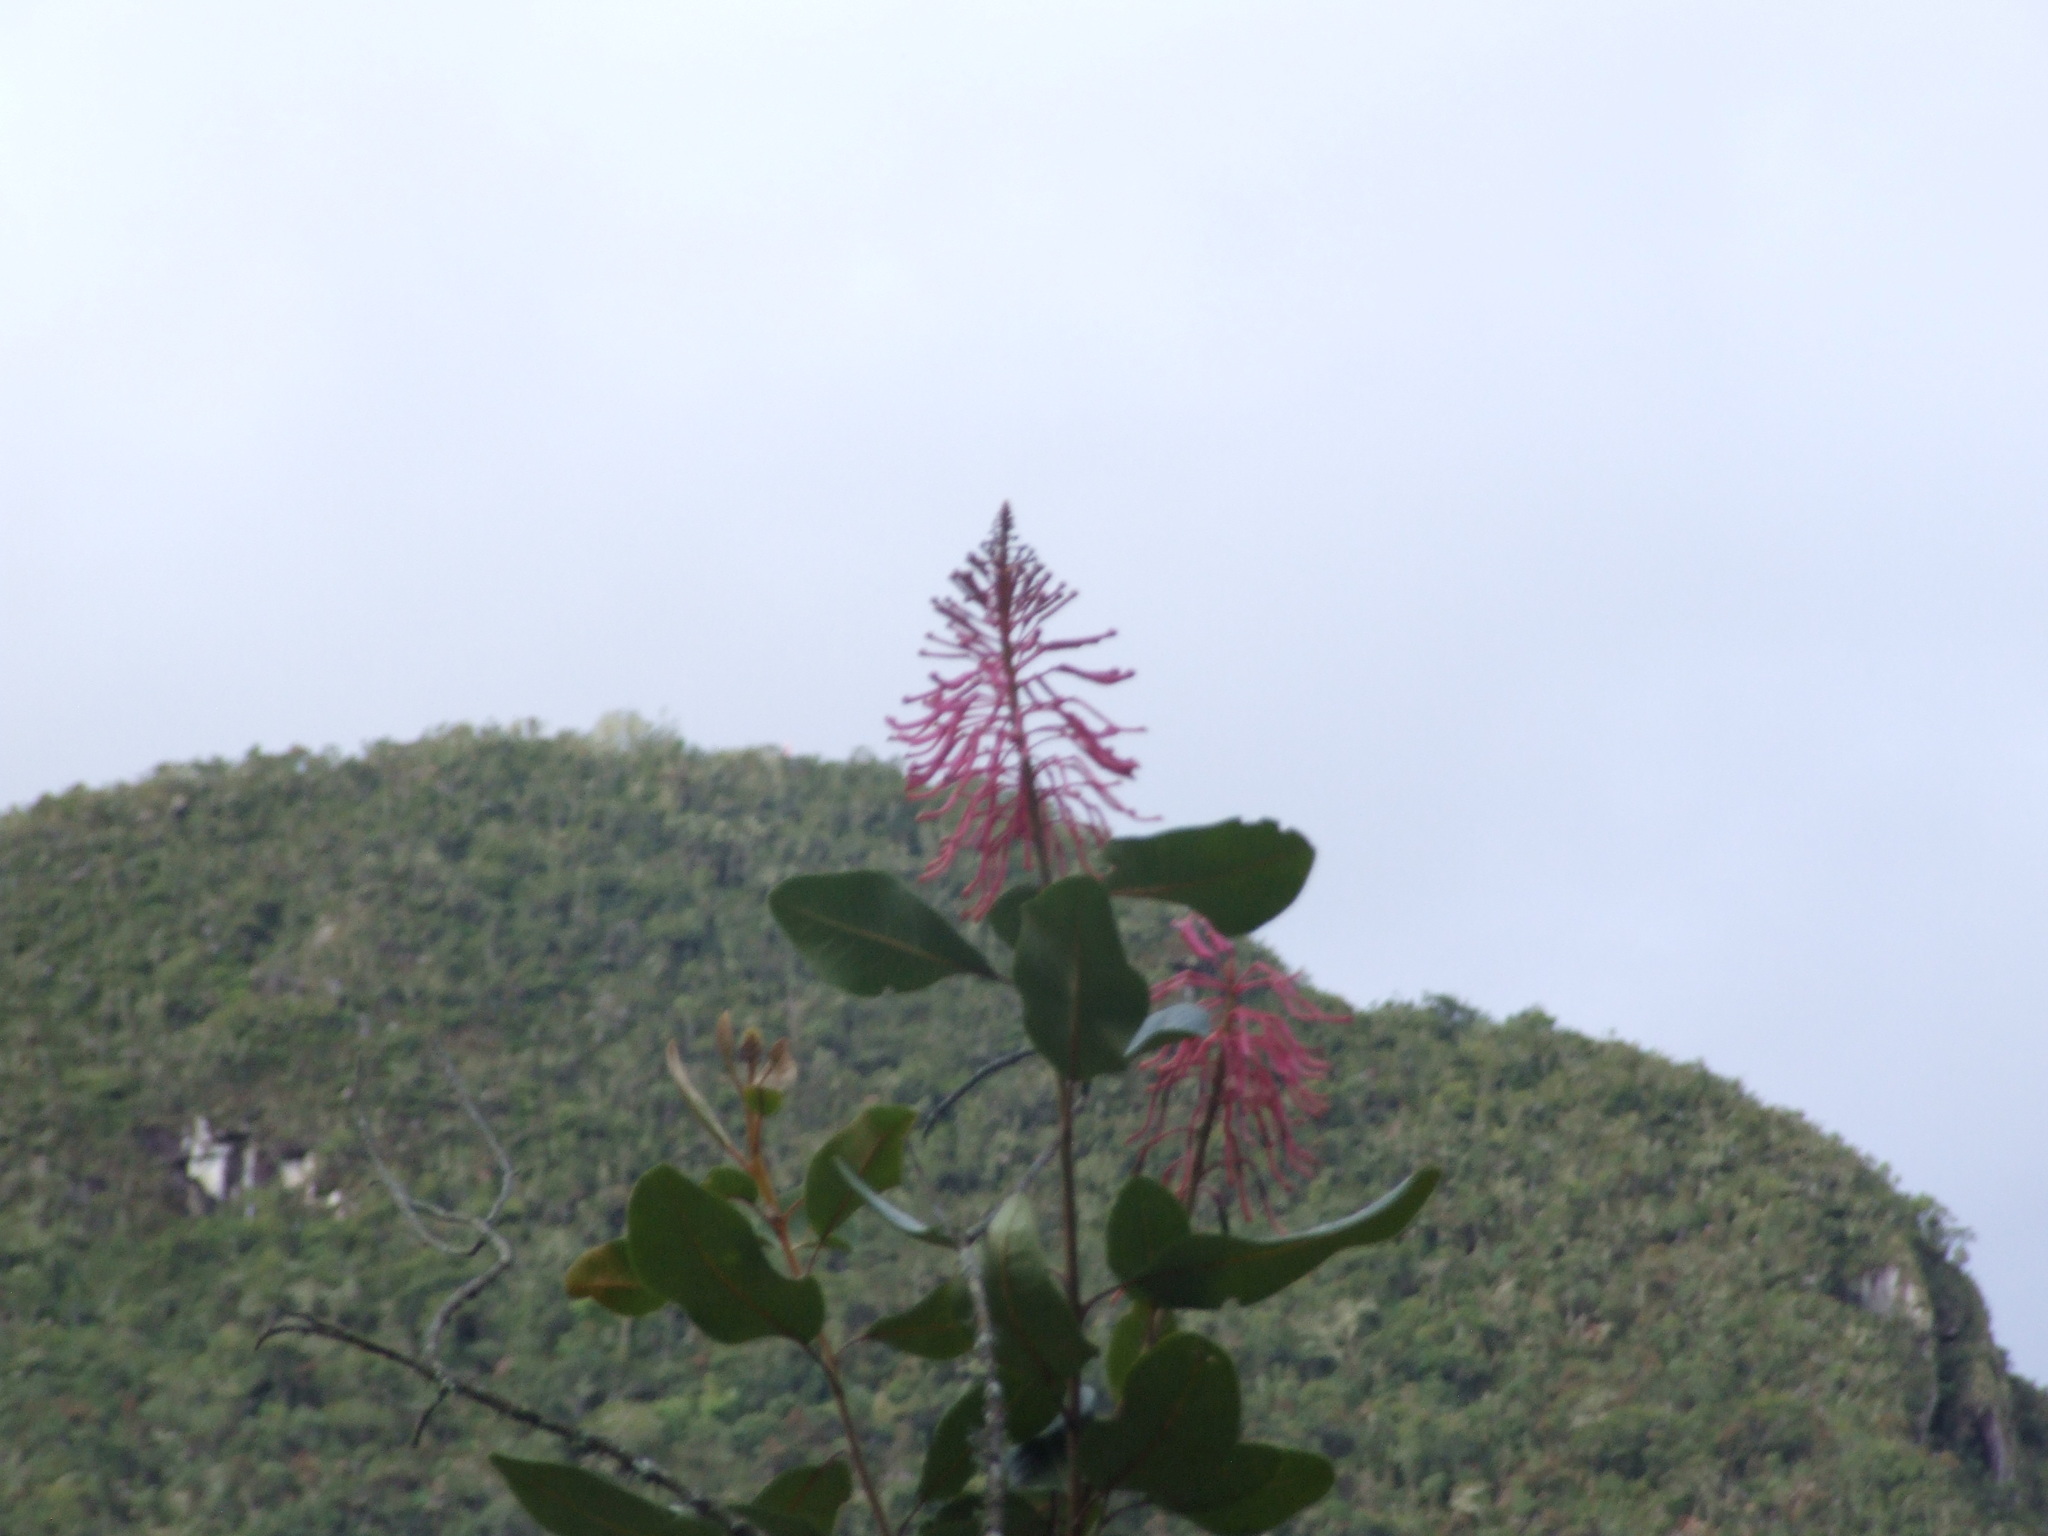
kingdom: Plantae
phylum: Tracheophyta
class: Magnoliopsida
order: Proteales
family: Proteaceae
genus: Oreocallis
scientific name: Oreocallis grandiflora
